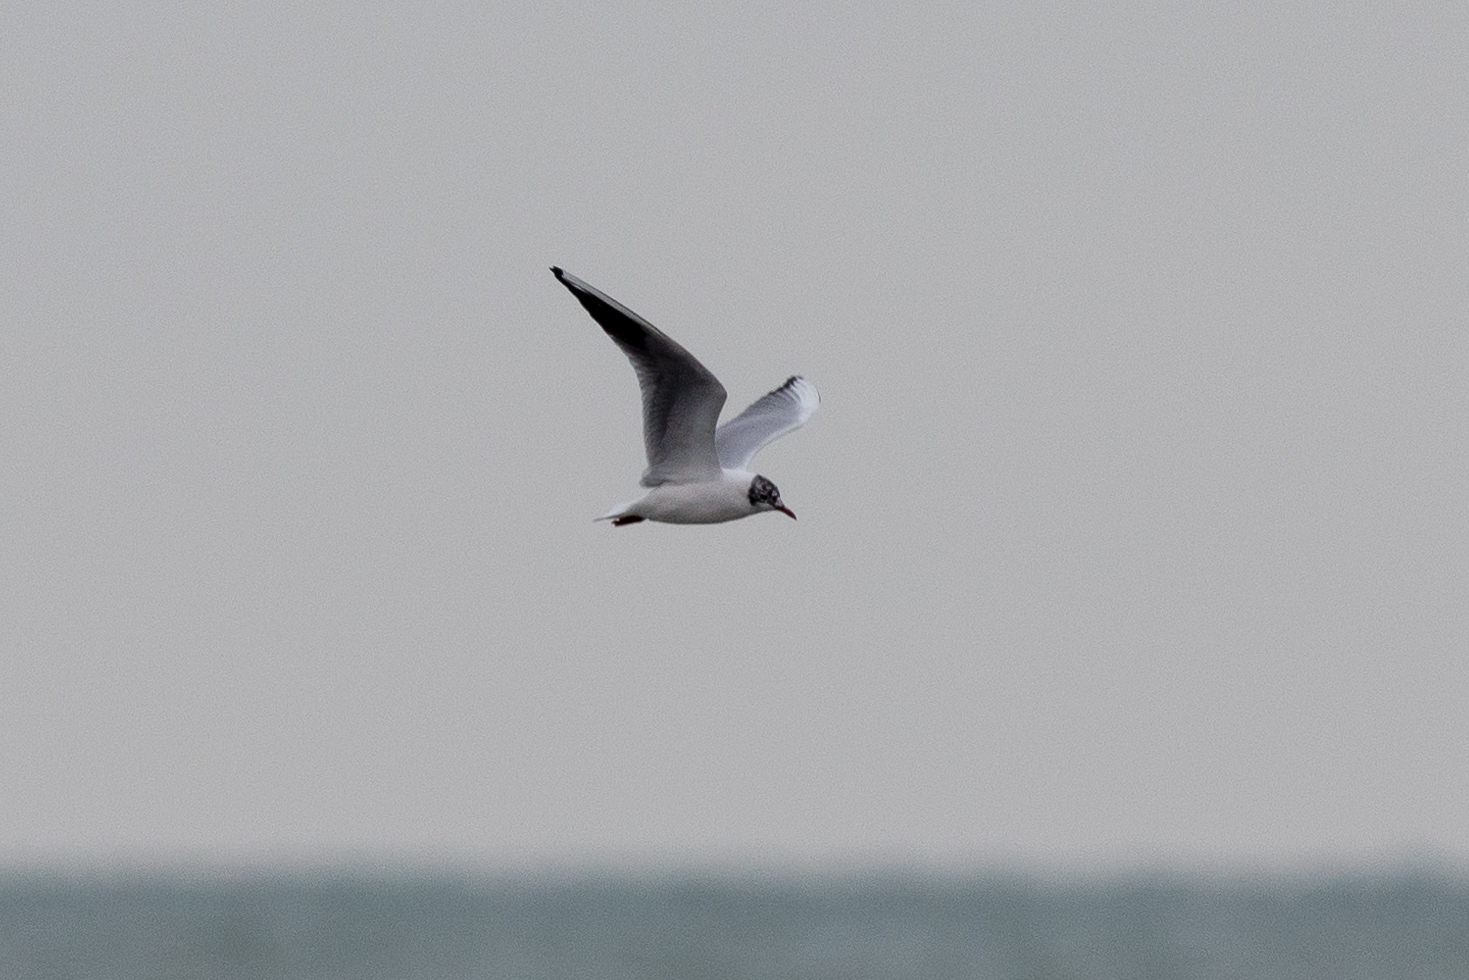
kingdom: Animalia
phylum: Chordata
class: Aves
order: Charadriiformes
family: Laridae
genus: Chroicocephalus
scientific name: Chroicocephalus ridibundus
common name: Black-headed gull
